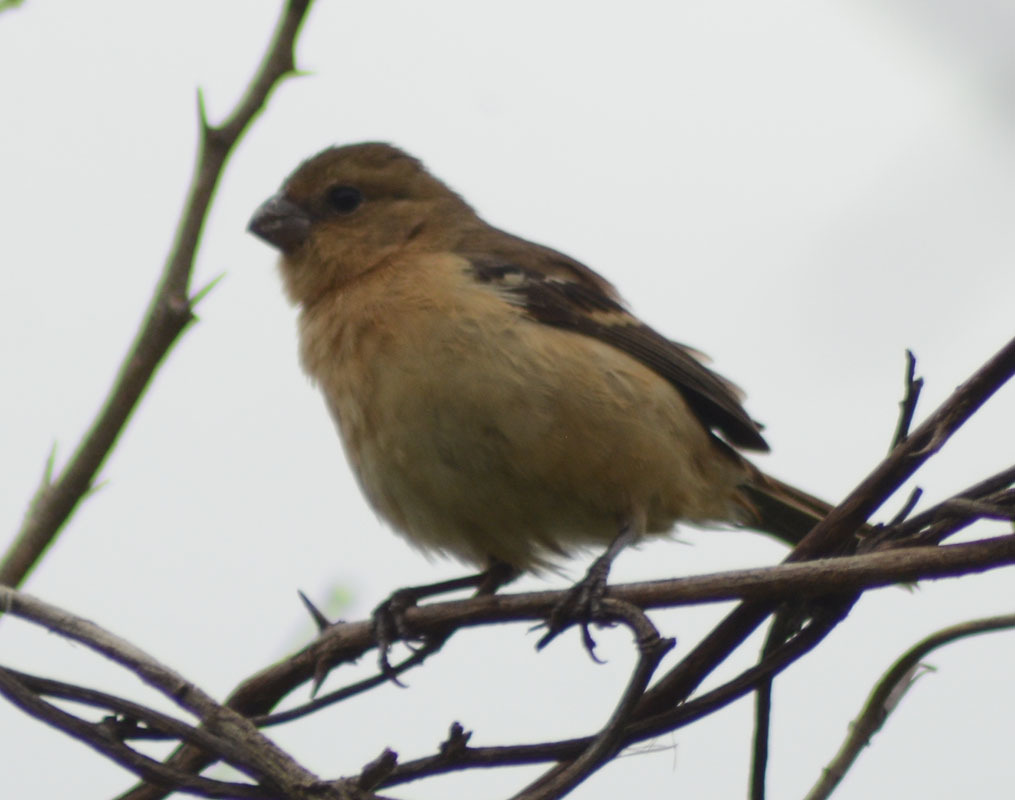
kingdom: Animalia
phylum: Chordata
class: Aves
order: Passeriformes
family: Thraupidae
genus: Sporophila
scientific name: Sporophila morelleti
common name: Morelet's seedeater
